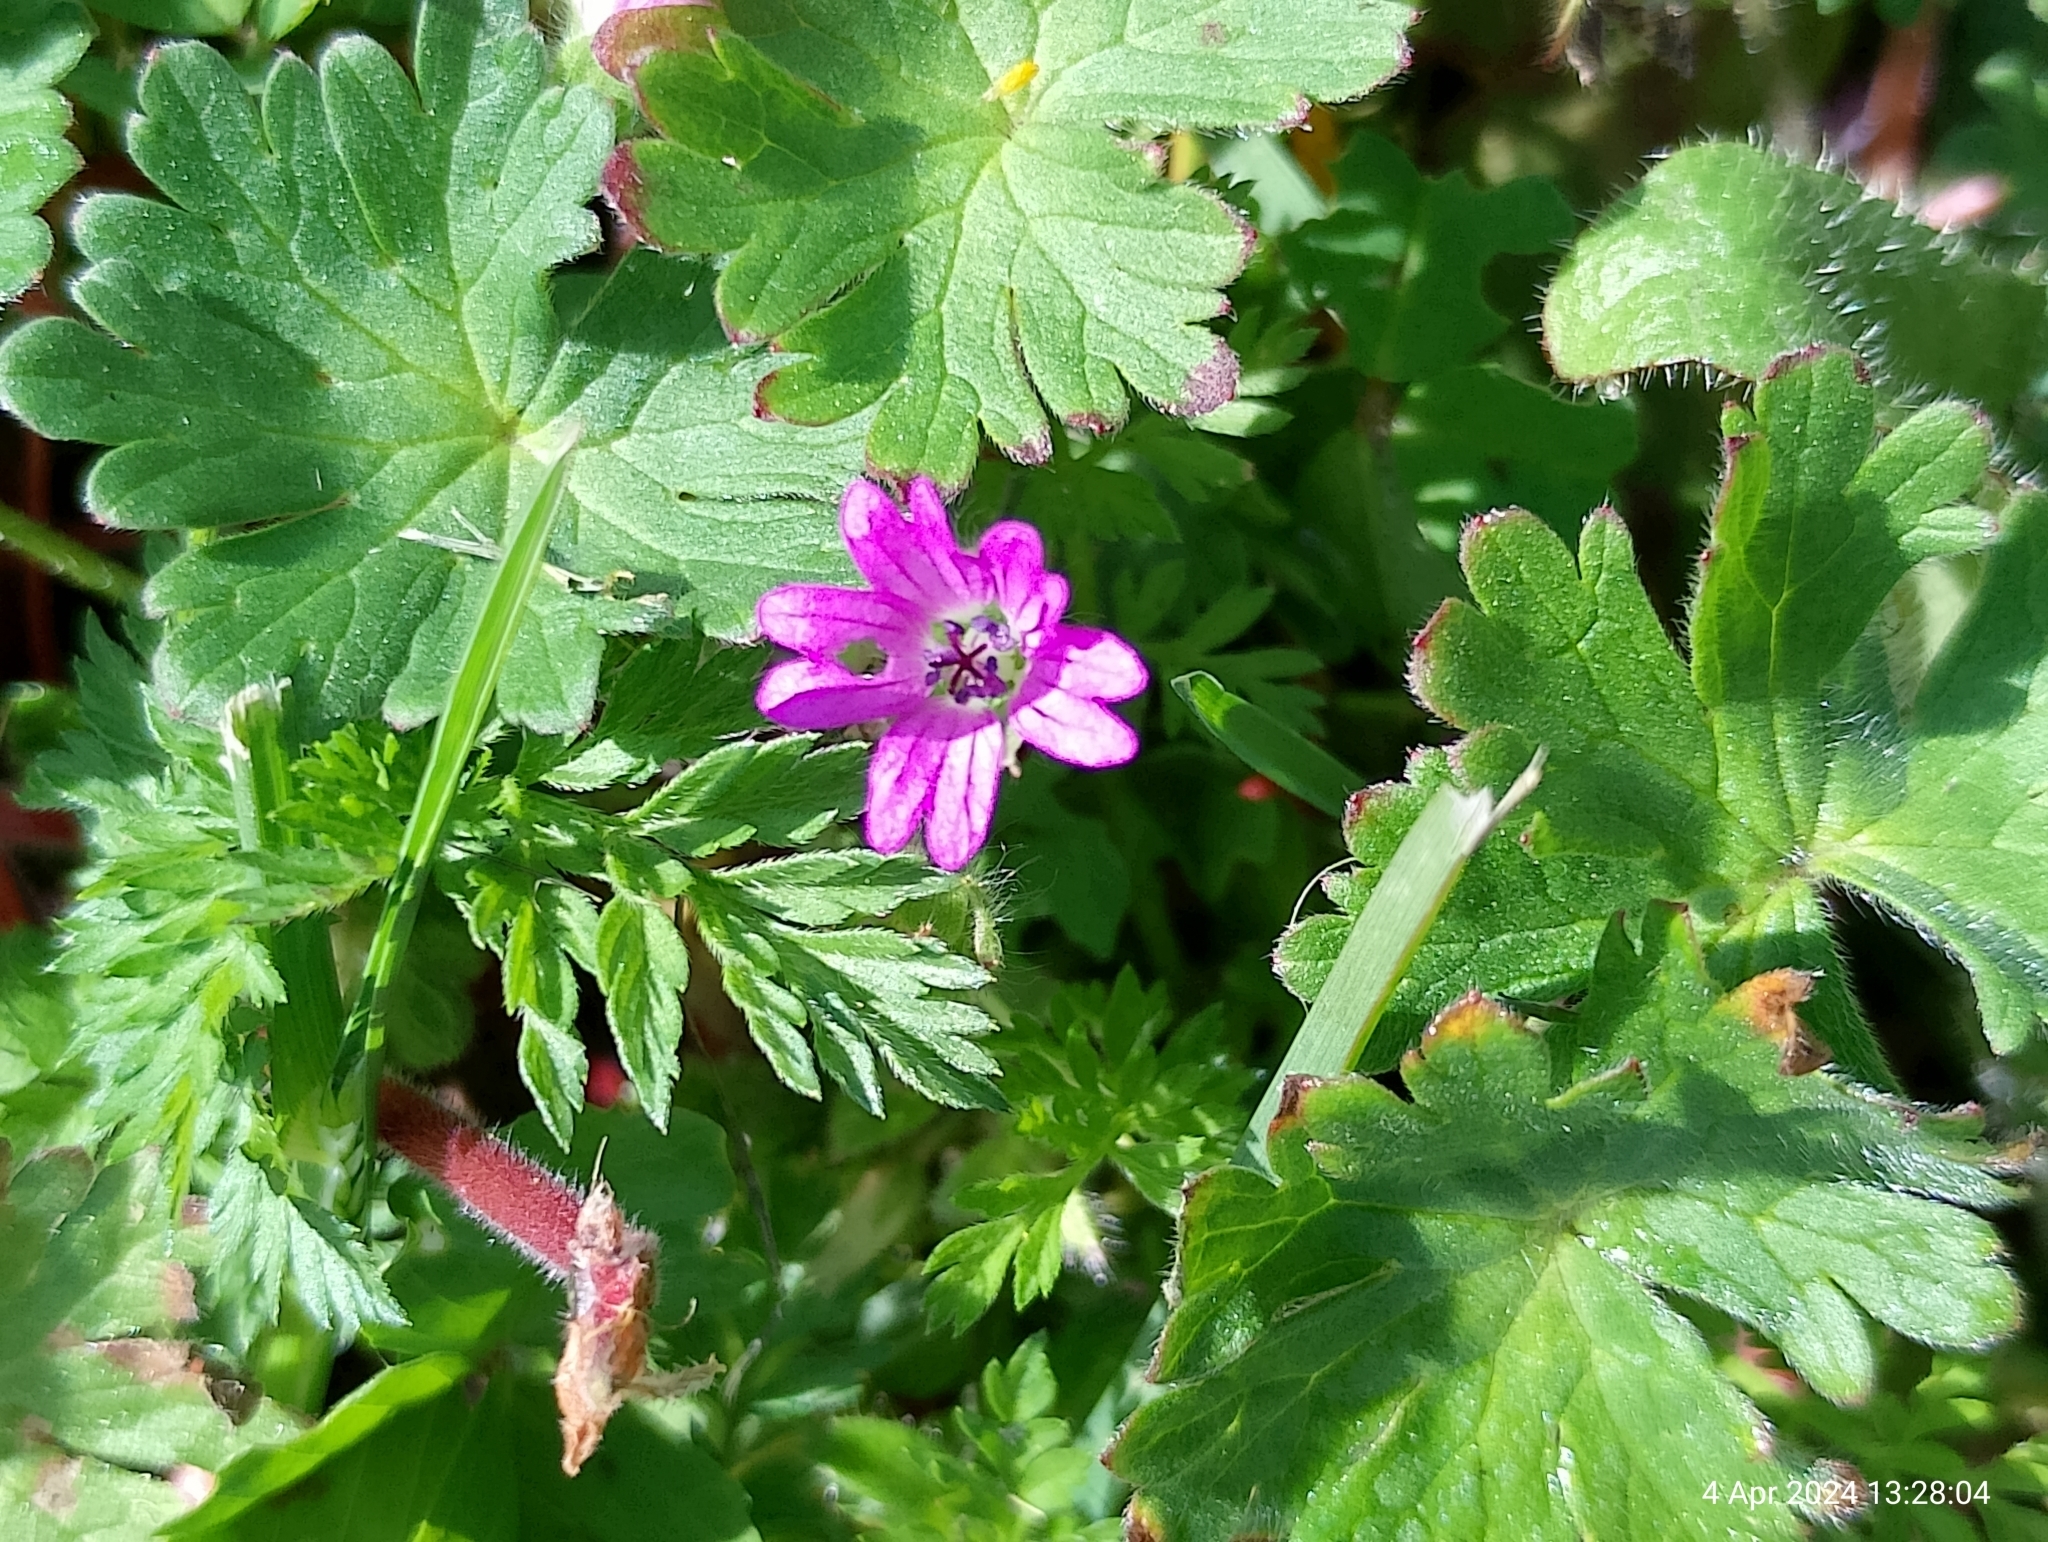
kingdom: Plantae
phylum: Tracheophyta
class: Magnoliopsida
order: Geraniales
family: Geraniaceae
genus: Geranium
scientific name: Geranium molle
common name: Dove's-foot crane's-bill
